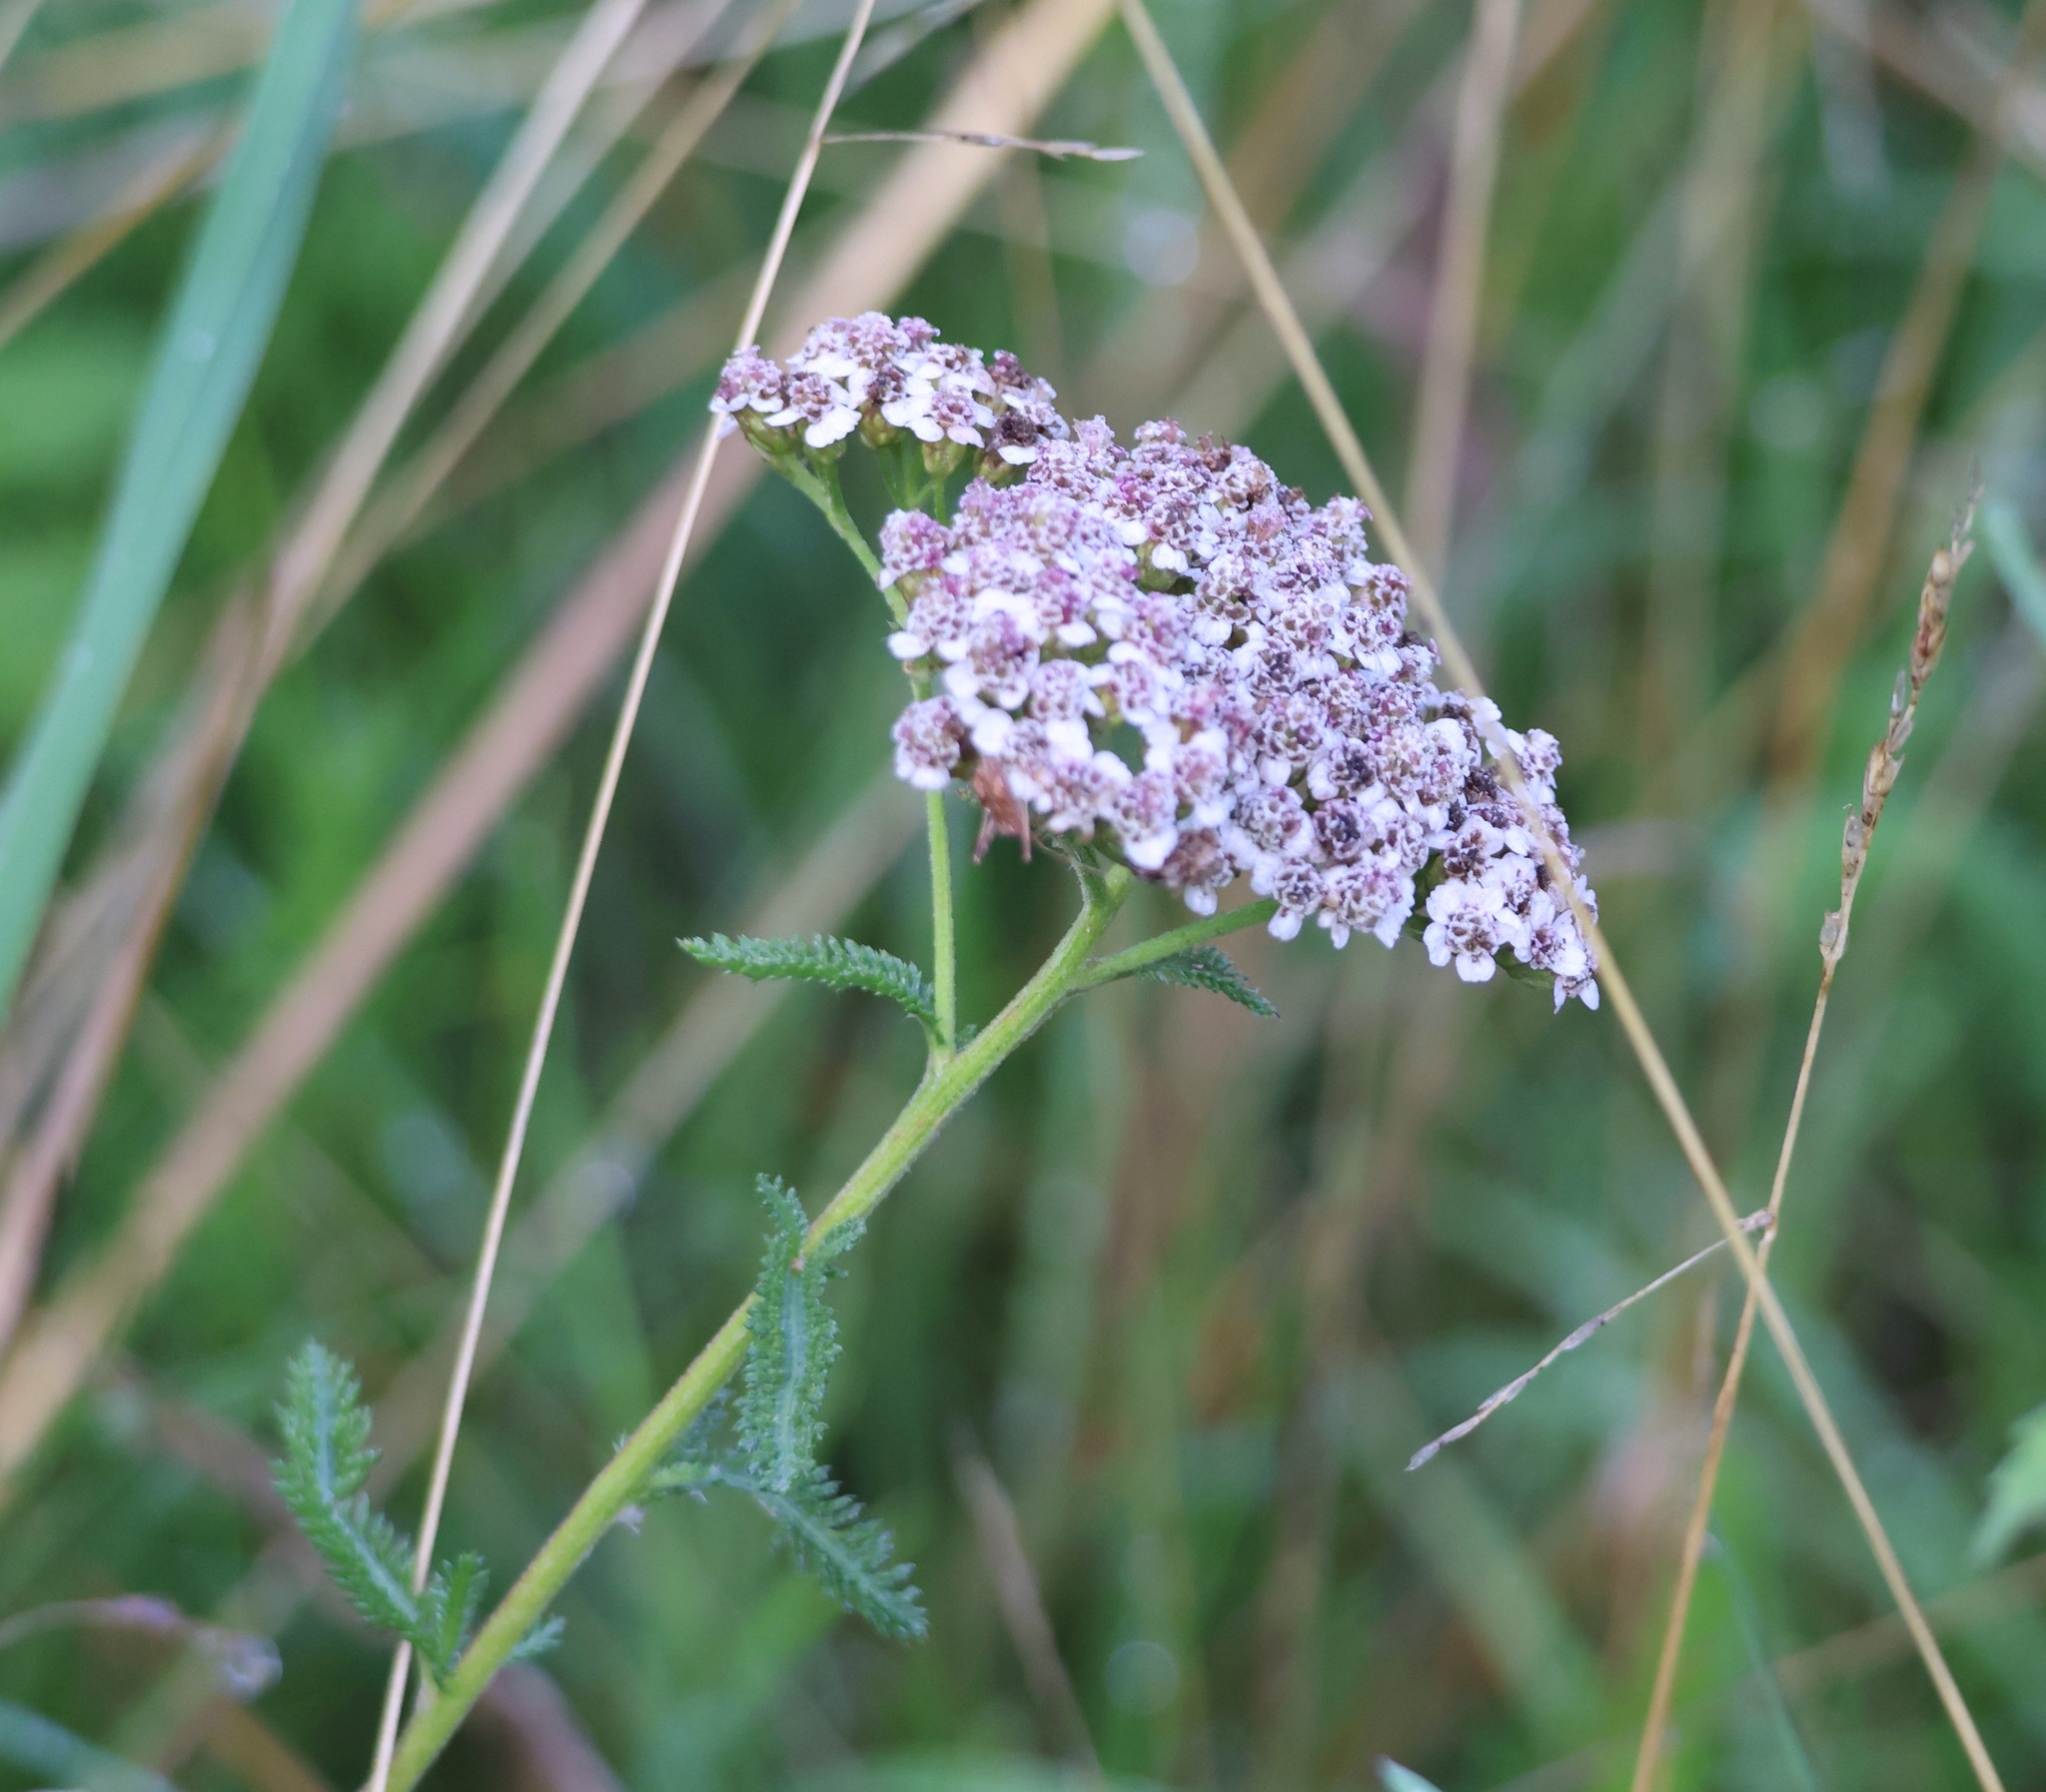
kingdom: Plantae
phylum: Tracheophyta
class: Magnoliopsida
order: Asterales
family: Asteraceae
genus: Achillea
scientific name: Achillea millefolium
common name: Yarrow
